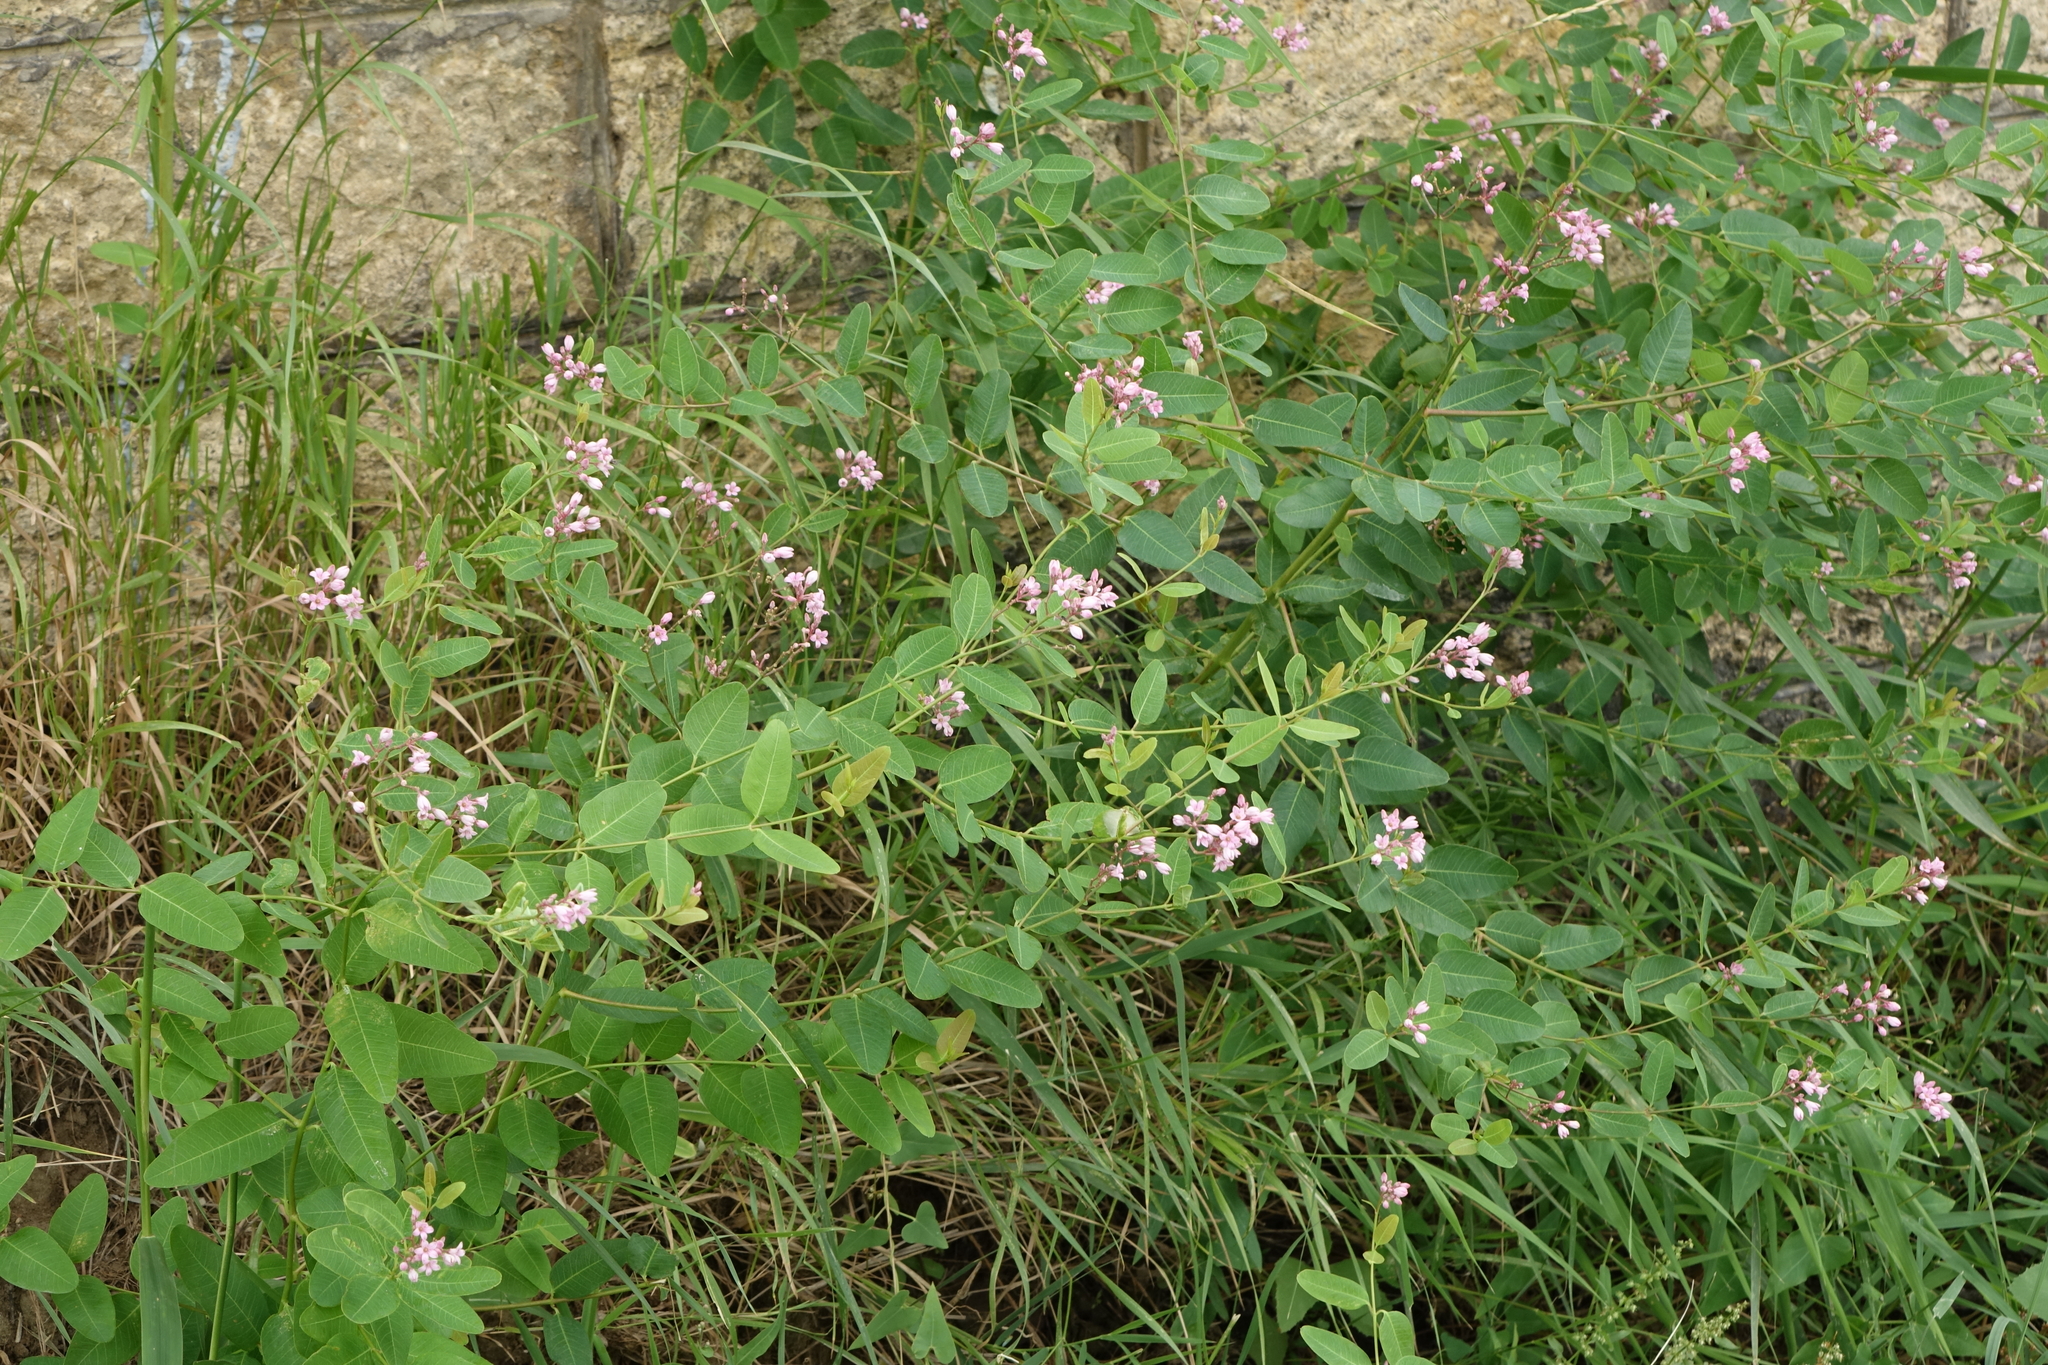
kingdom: Plantae
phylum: Tracheophyta
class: Magnoliopsida
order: Gentianales
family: Apocynaceae
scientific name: Apocynaceae
